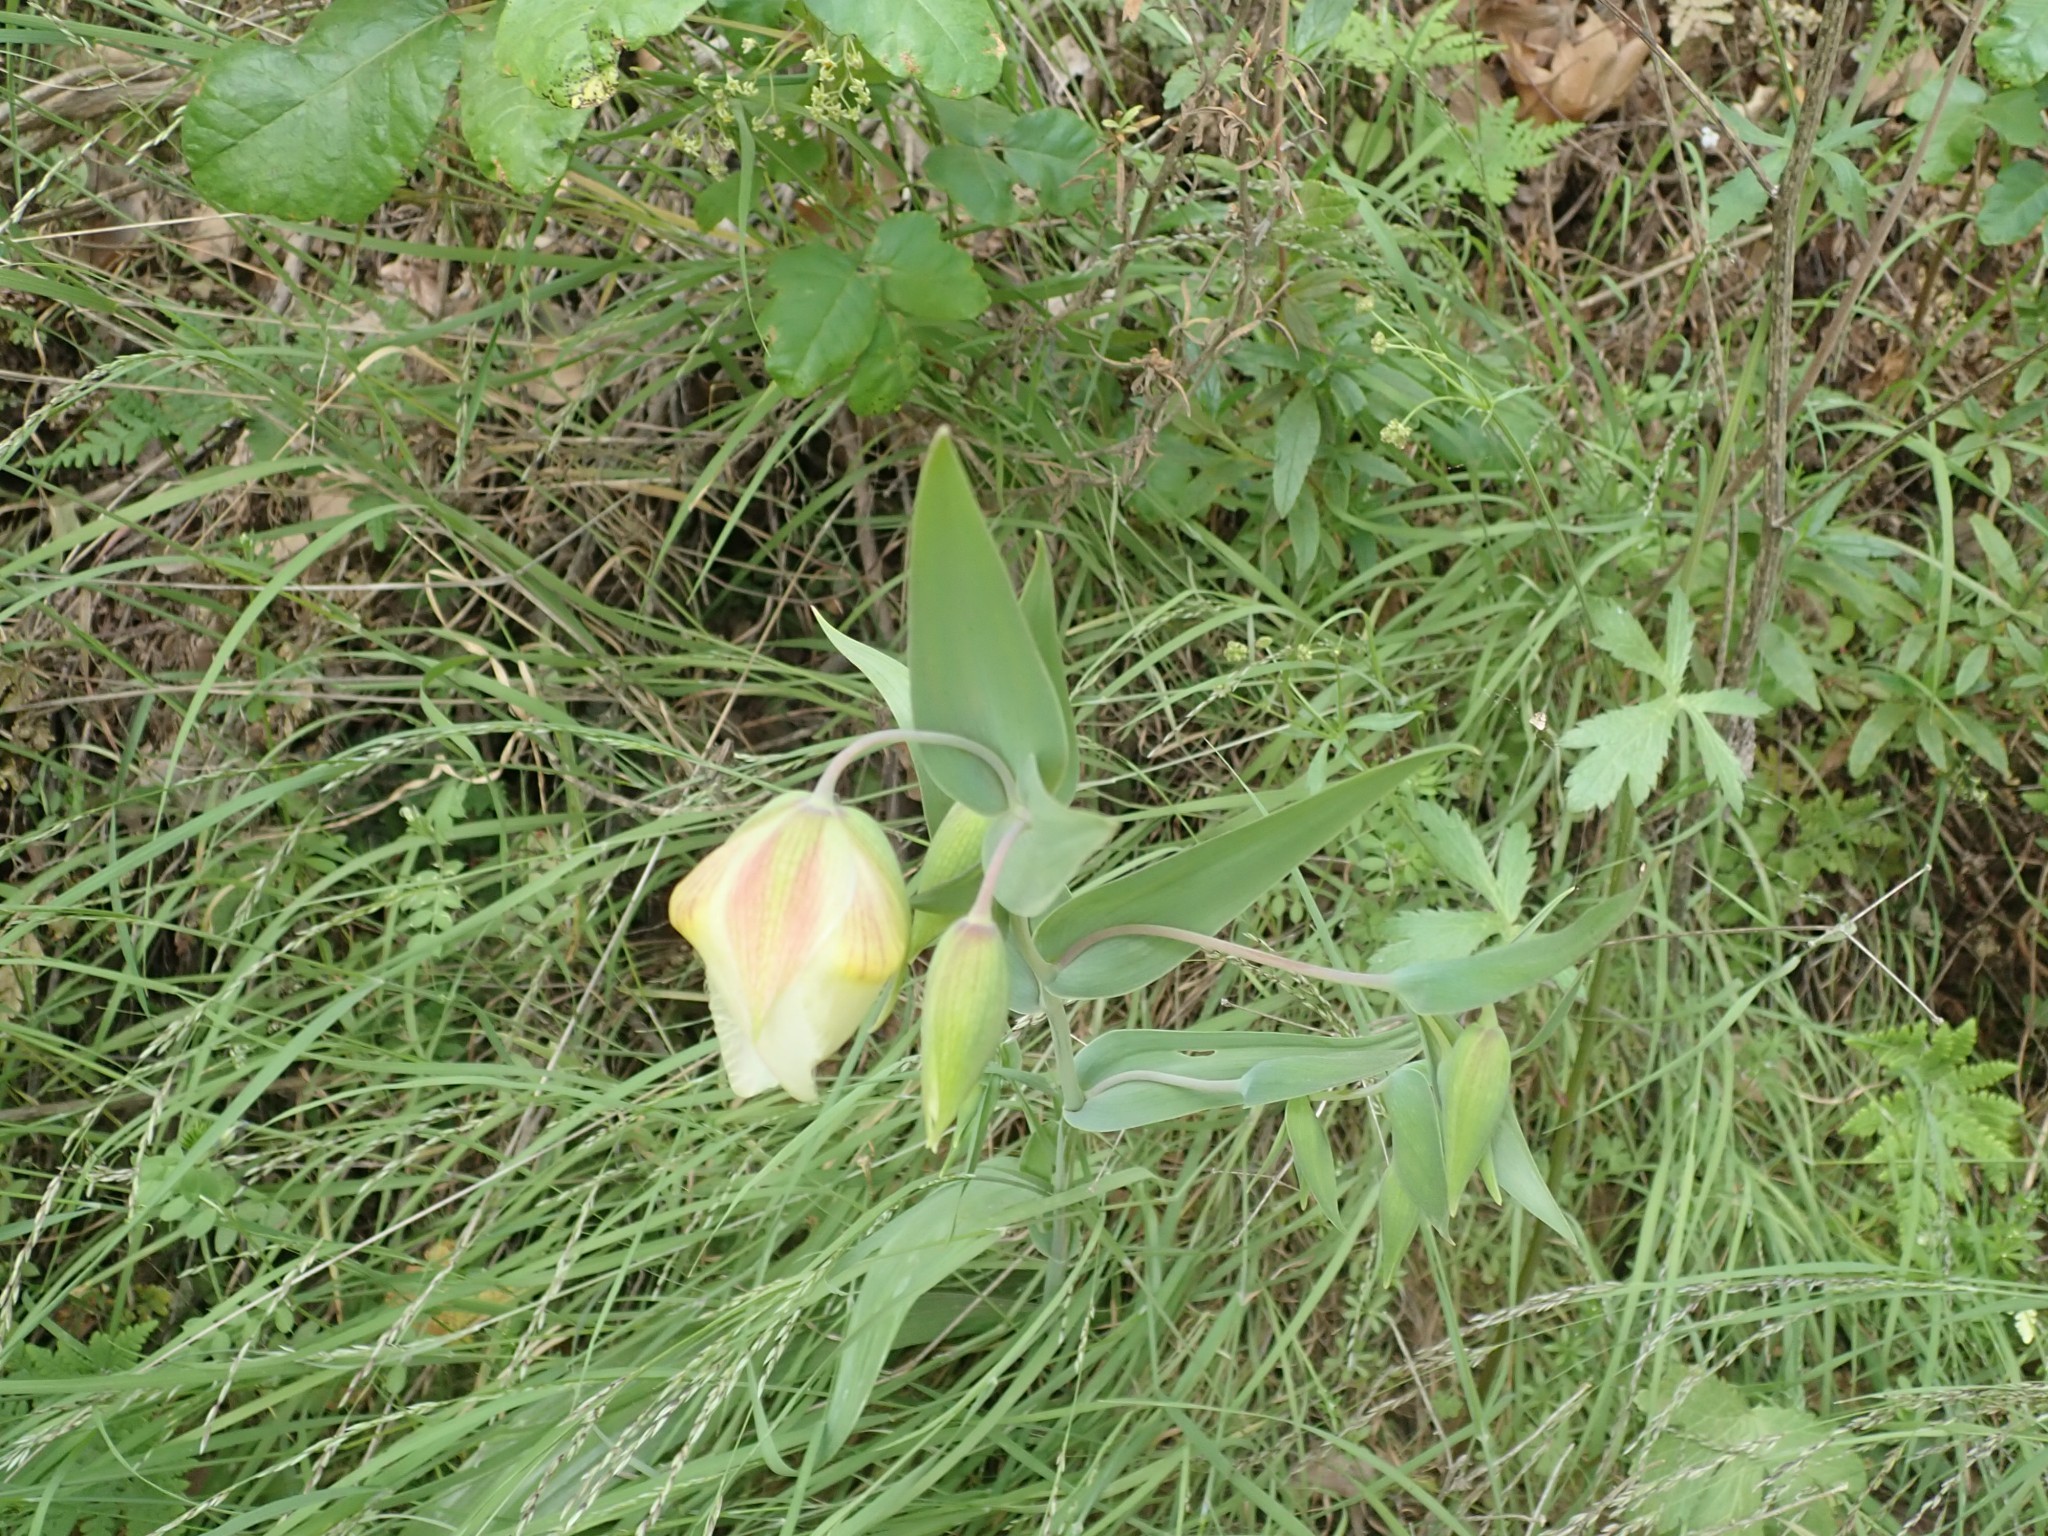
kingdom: Plantae
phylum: Tracheophyta
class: Liliopsida
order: Liliales
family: Liliaceae
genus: Calochortus
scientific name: Calochortus albus
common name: Fairy-lantern
